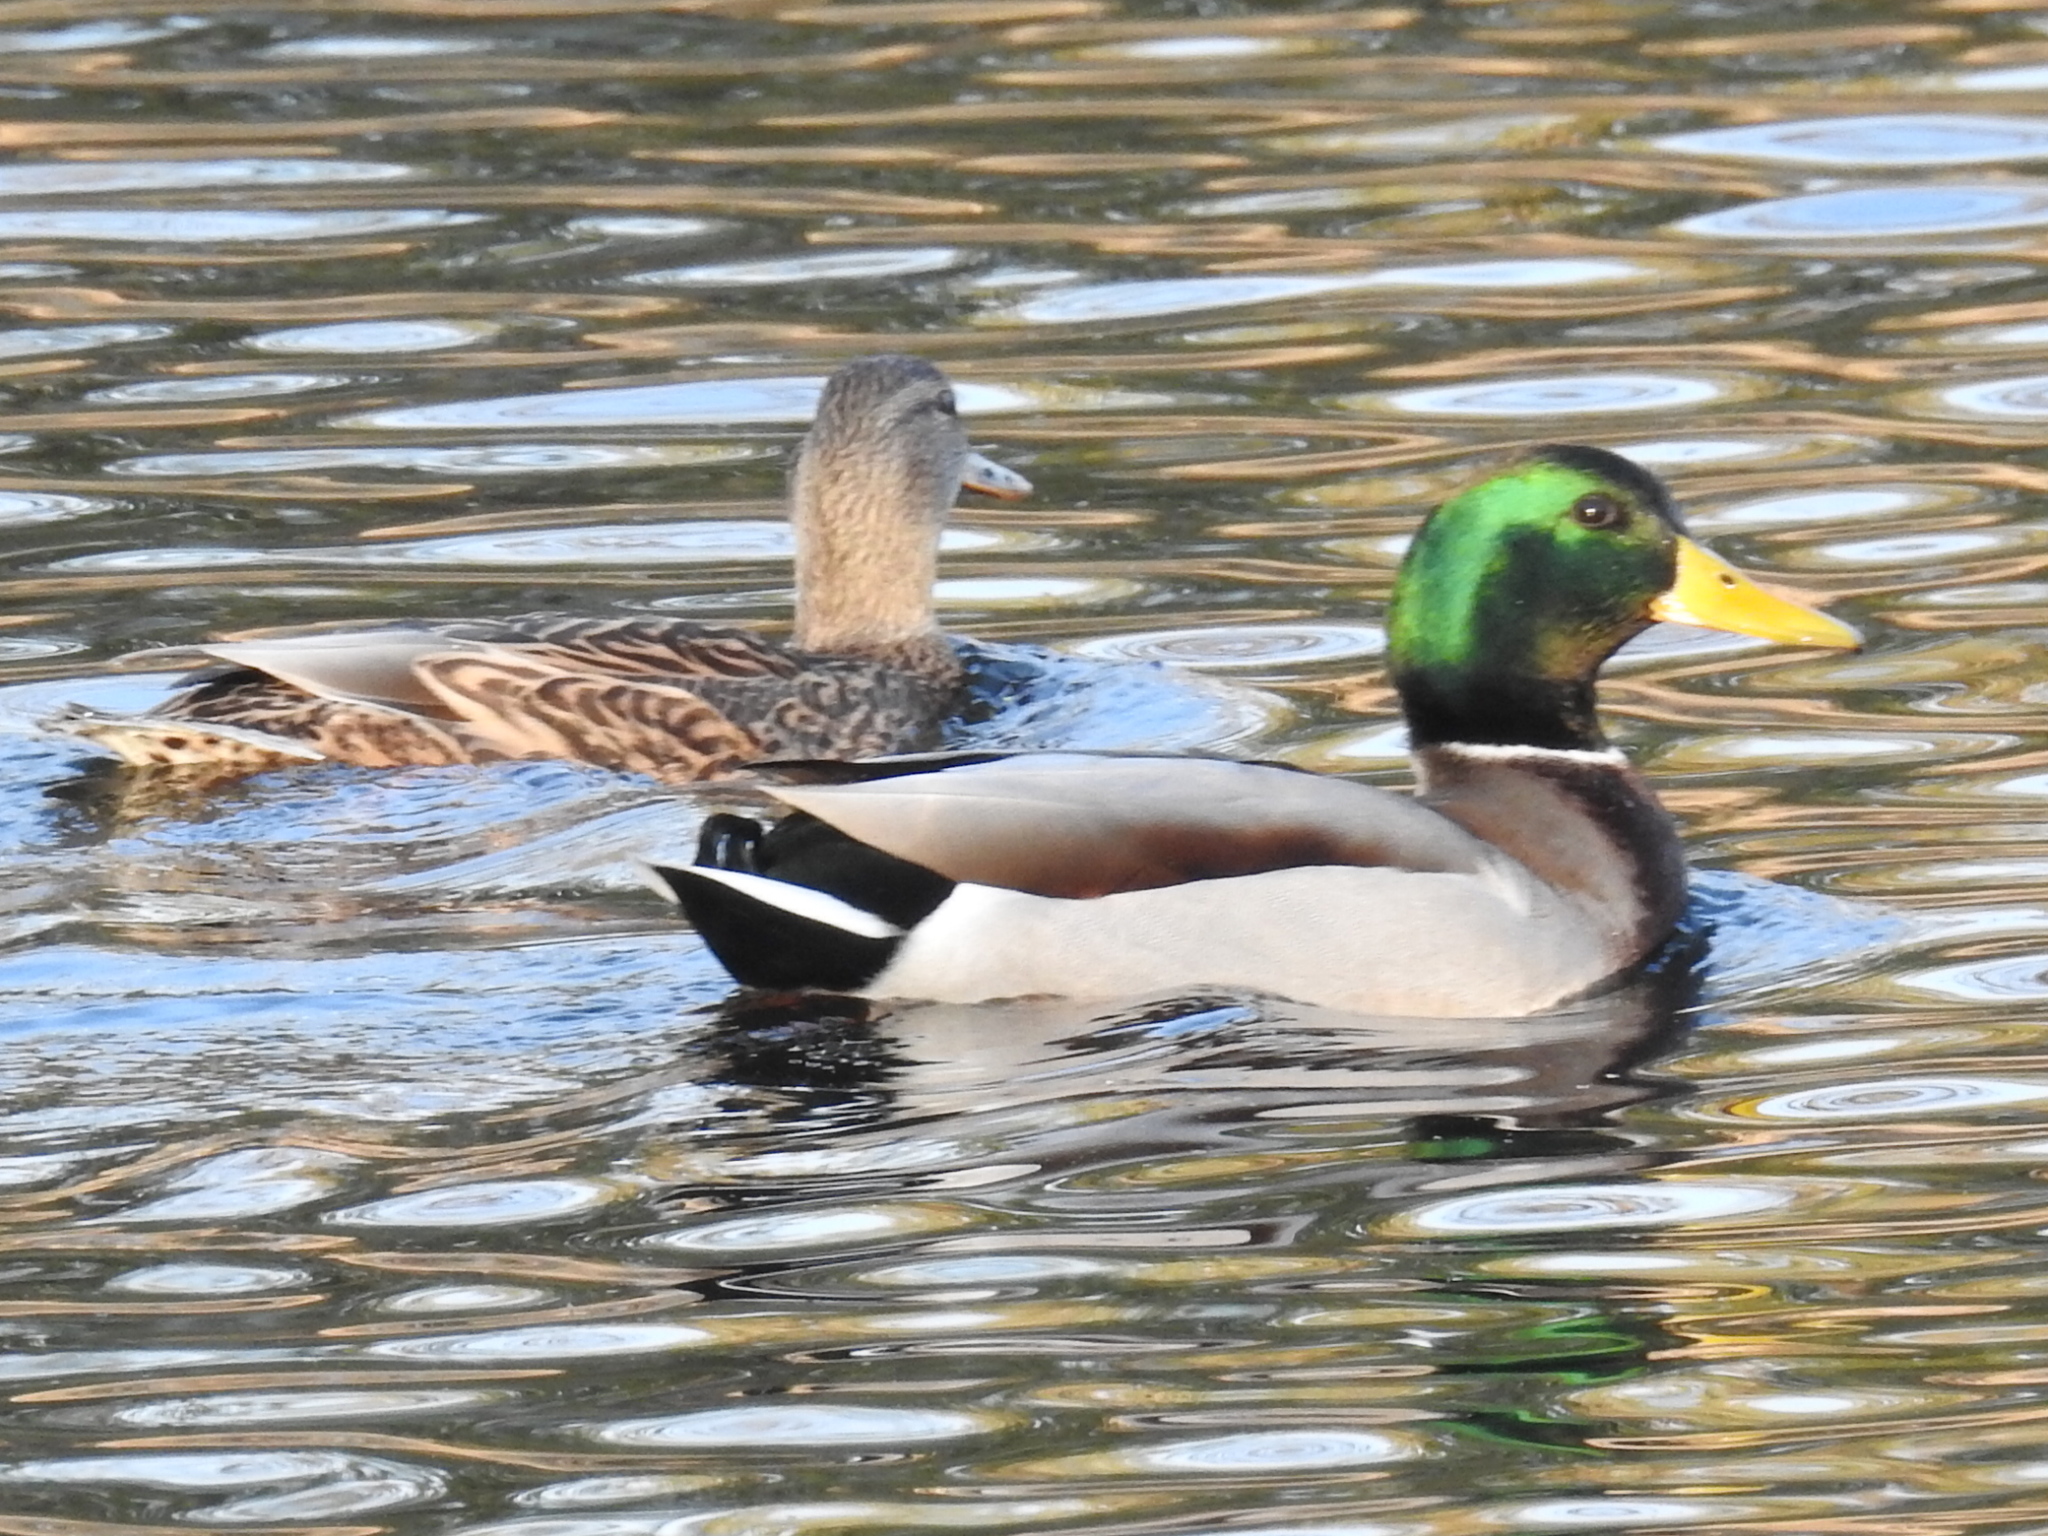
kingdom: Animalia
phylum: Chordata
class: Aves
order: Anseriformes
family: Anatidae
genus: Anas
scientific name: Anas platyrhynchos
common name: Mallard
